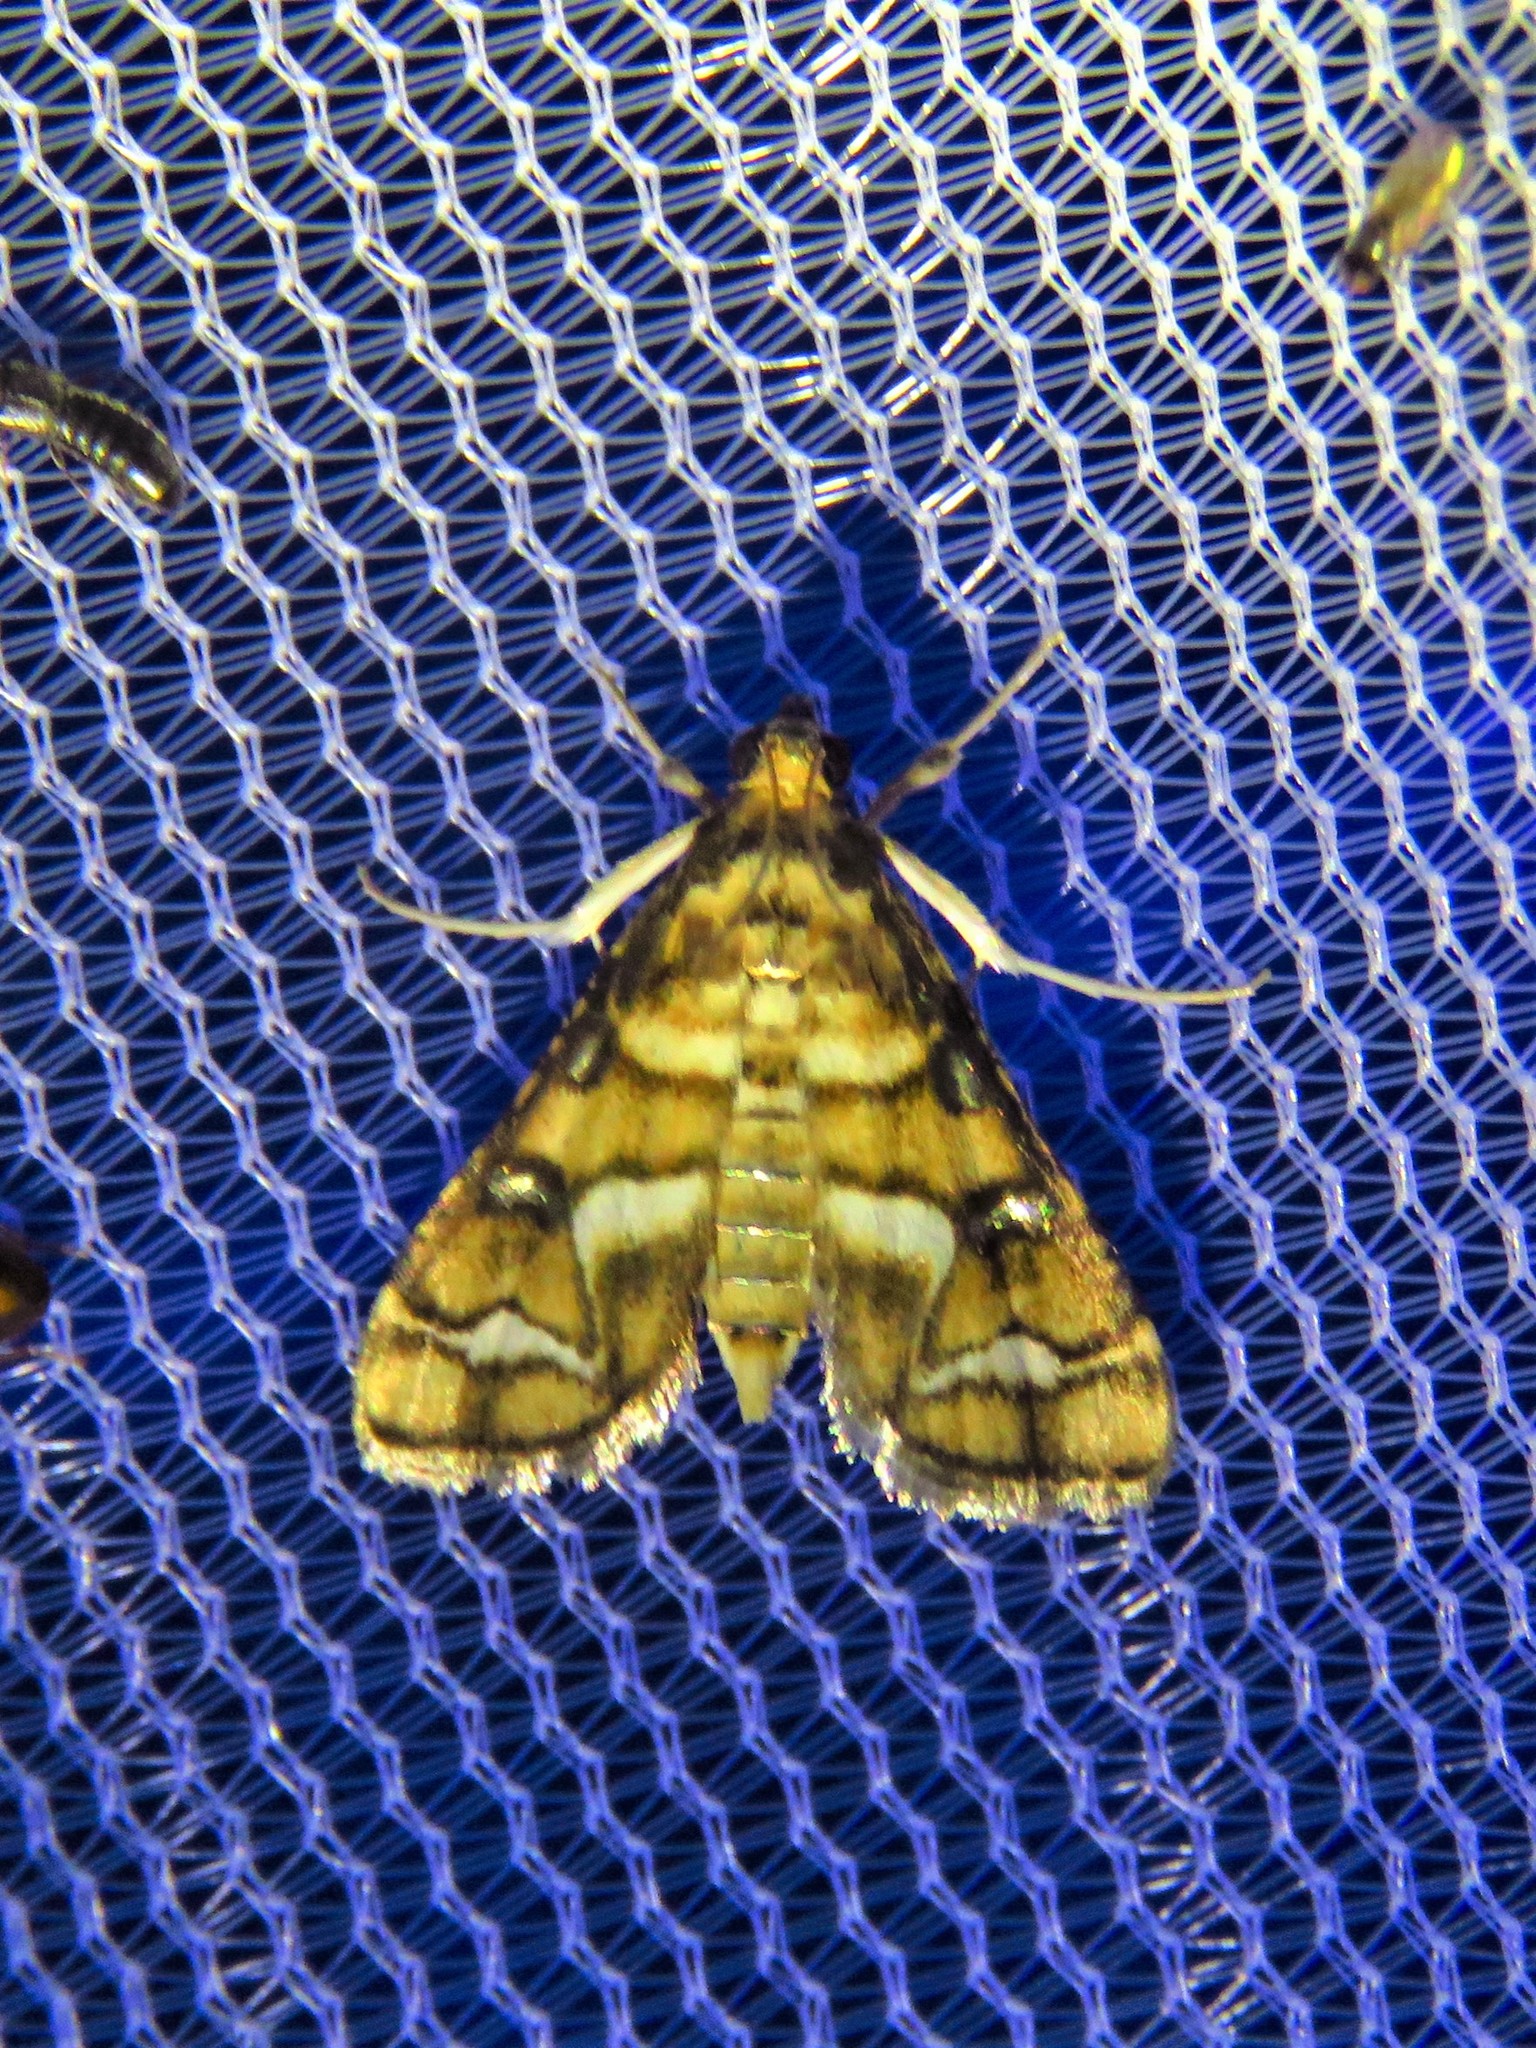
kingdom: Animalia
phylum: Arthropoda
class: Insecta
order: Lepidoptera
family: Crambidae
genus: Hileithia
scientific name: Hileithia magualis
